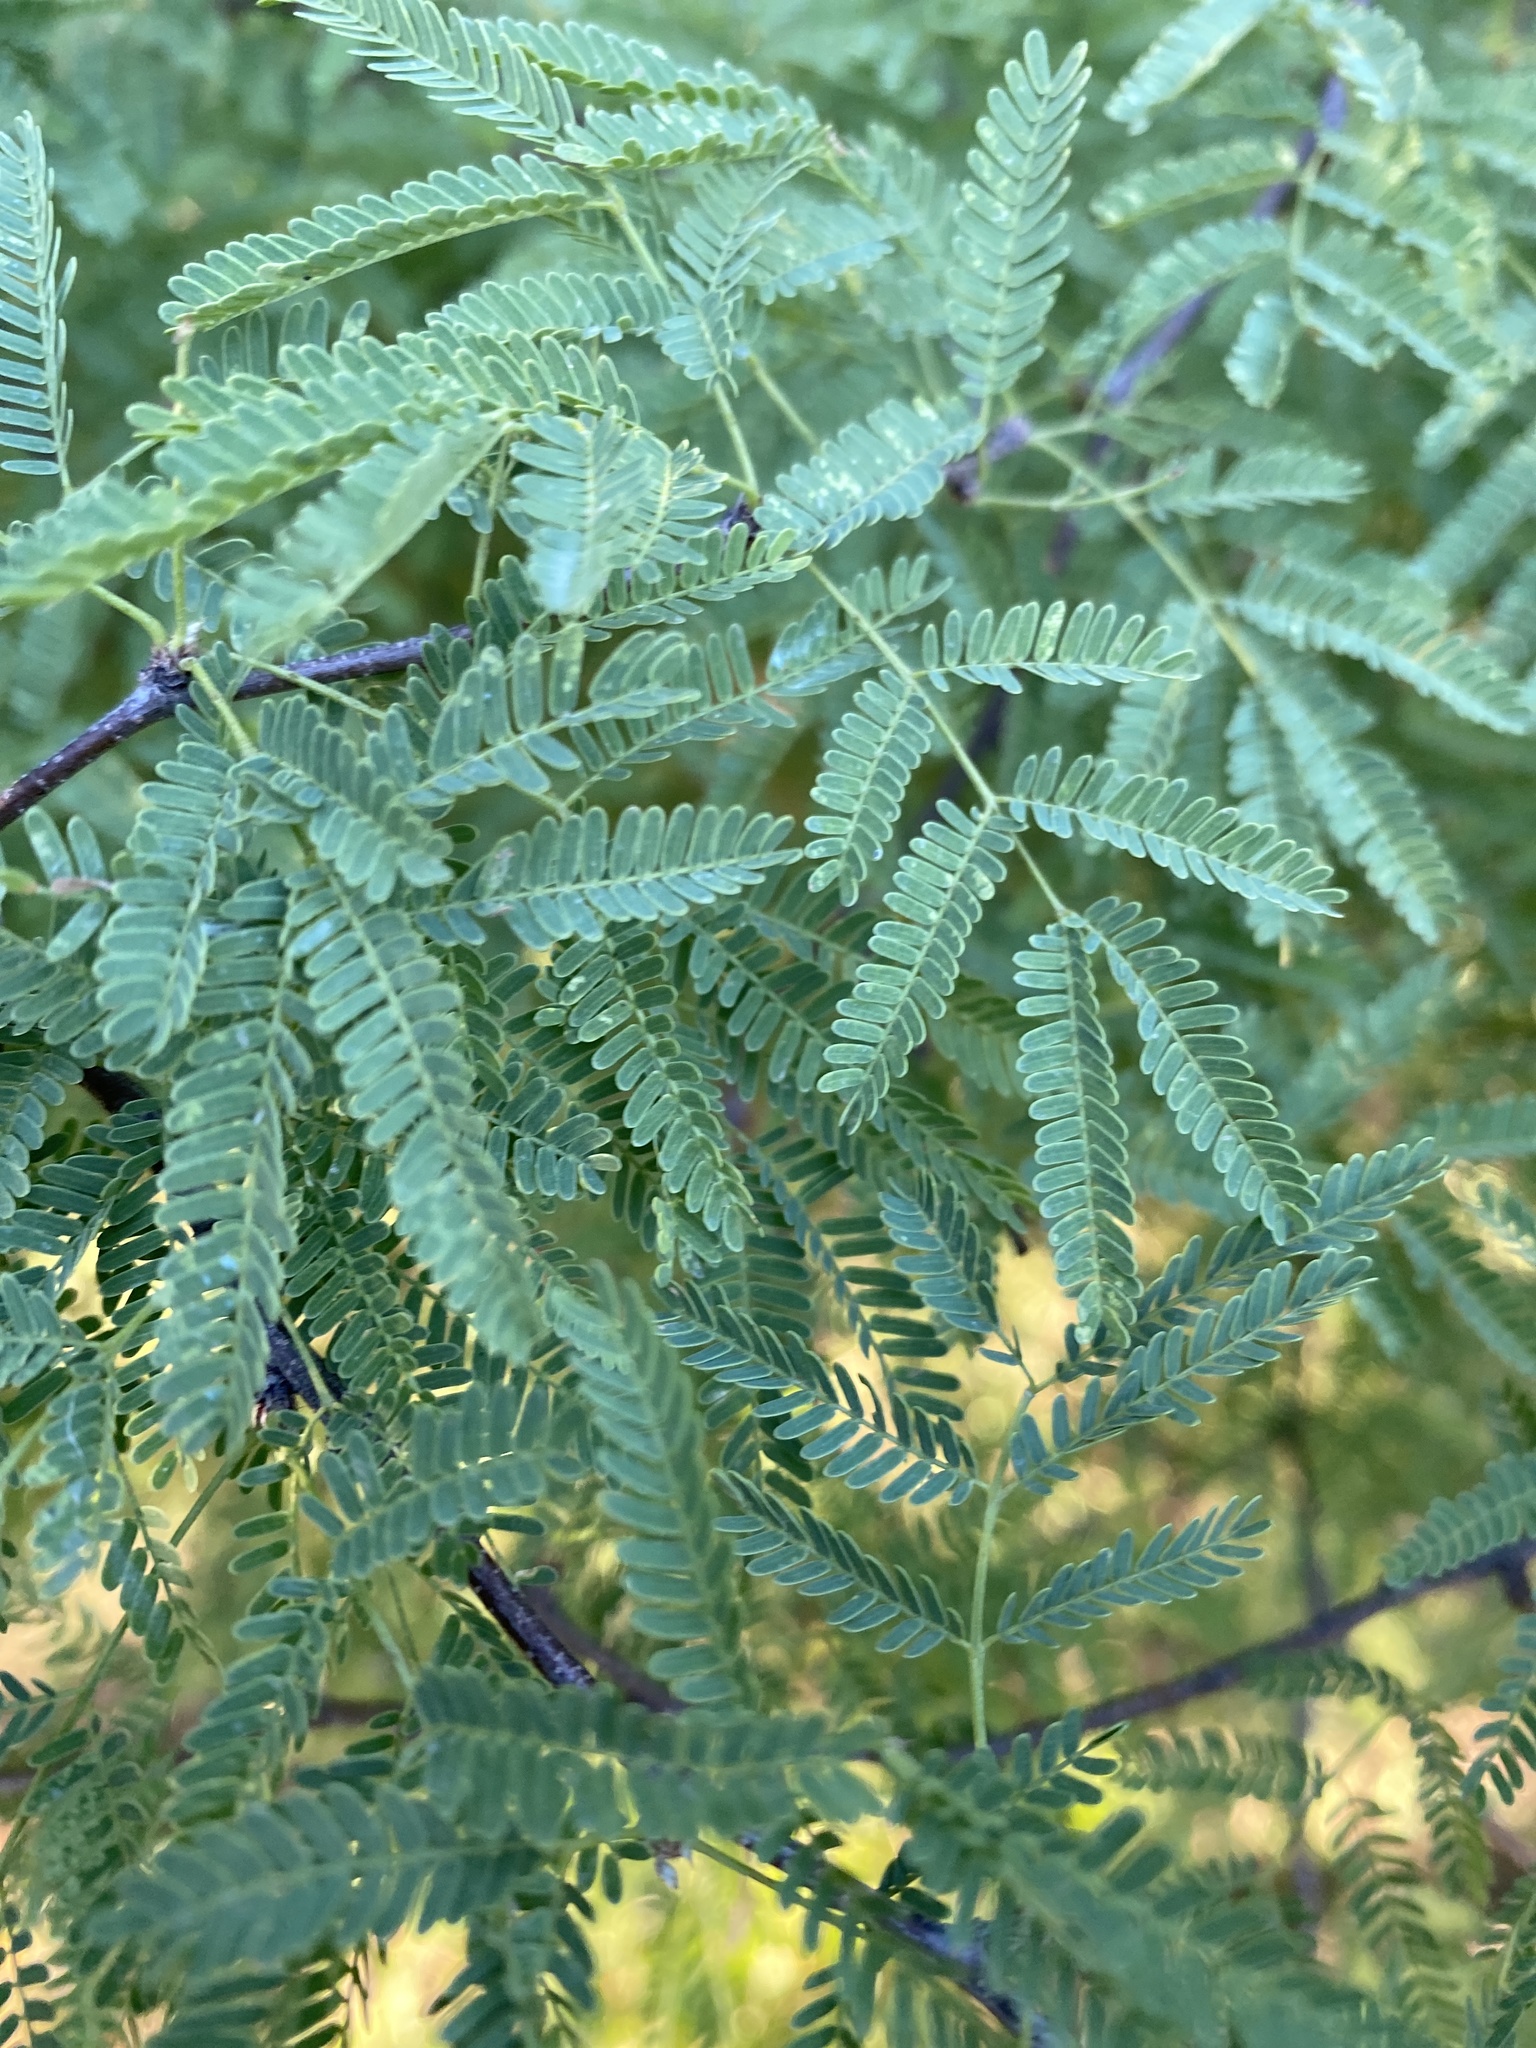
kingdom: Plantae
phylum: Tracheophyta
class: Magnoliopsida
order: Fabales
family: Fabaceae
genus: Vachellia
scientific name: Vachellia farnesiana
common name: Sweet acacia
